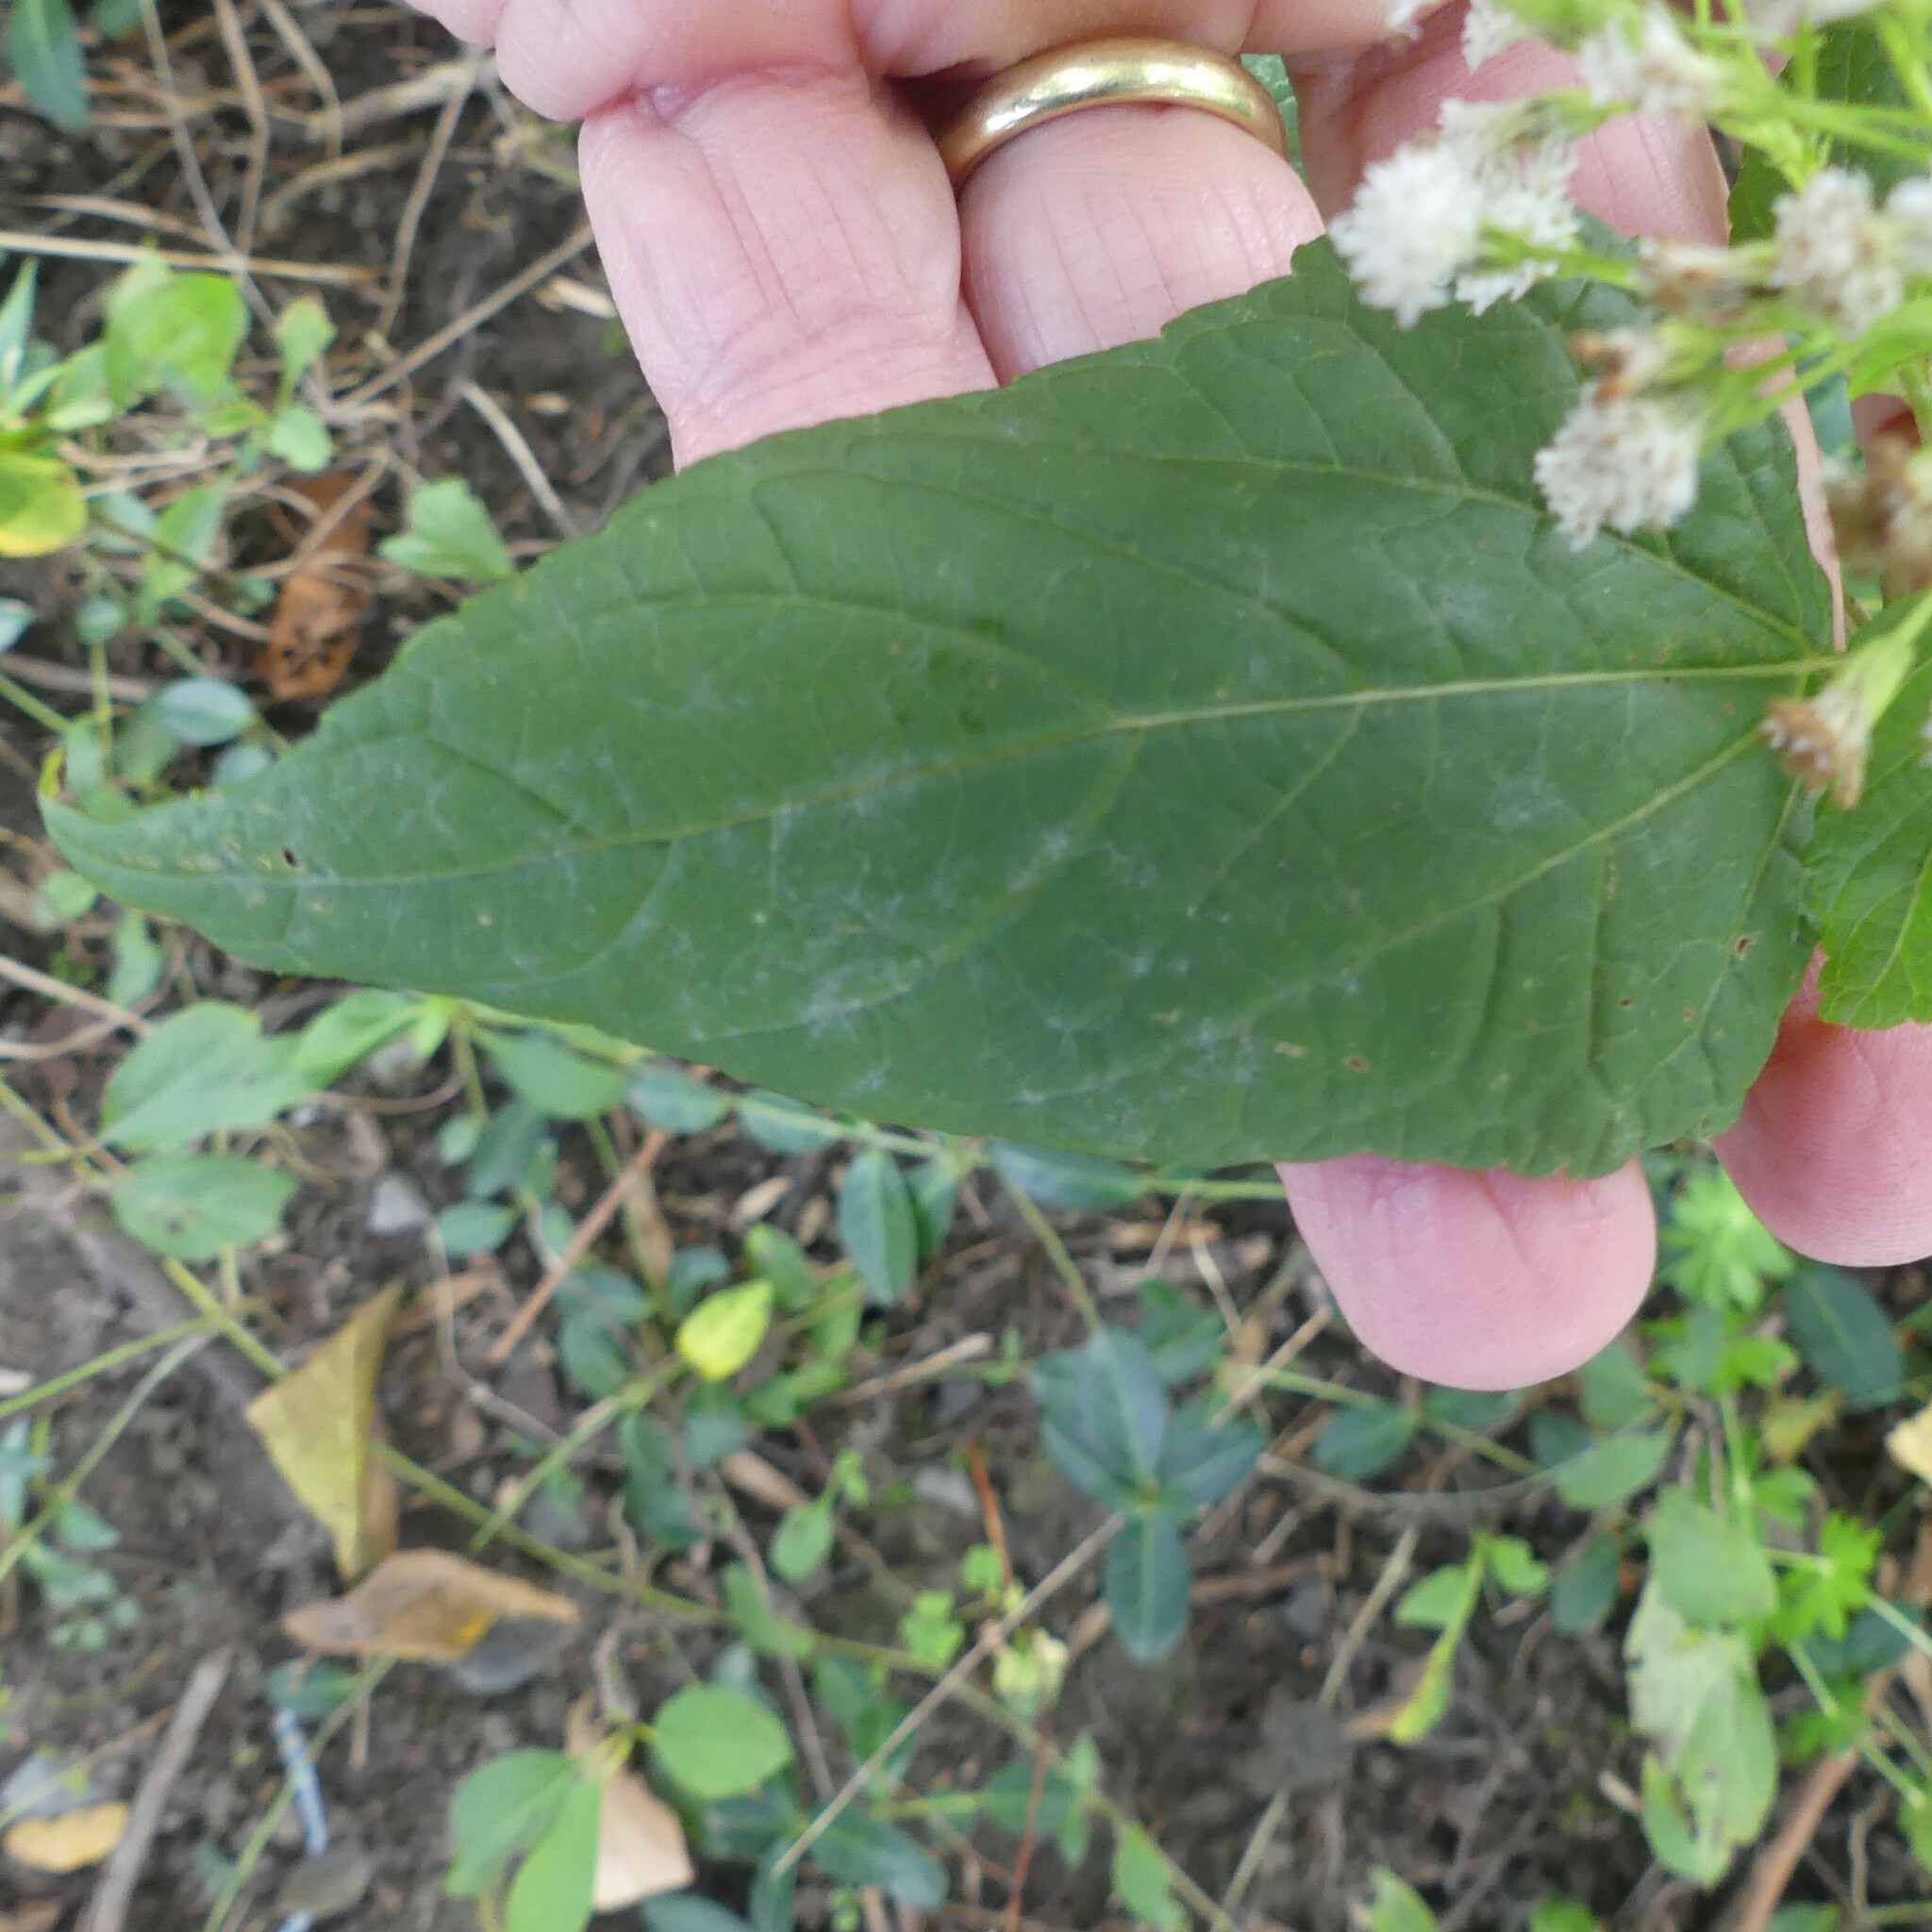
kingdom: Plantae
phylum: Tracheophyta
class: Magnoliopsida
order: Asterales
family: Asteraceae
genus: Ageratina
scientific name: Ageratina altissima
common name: White snakeroot
